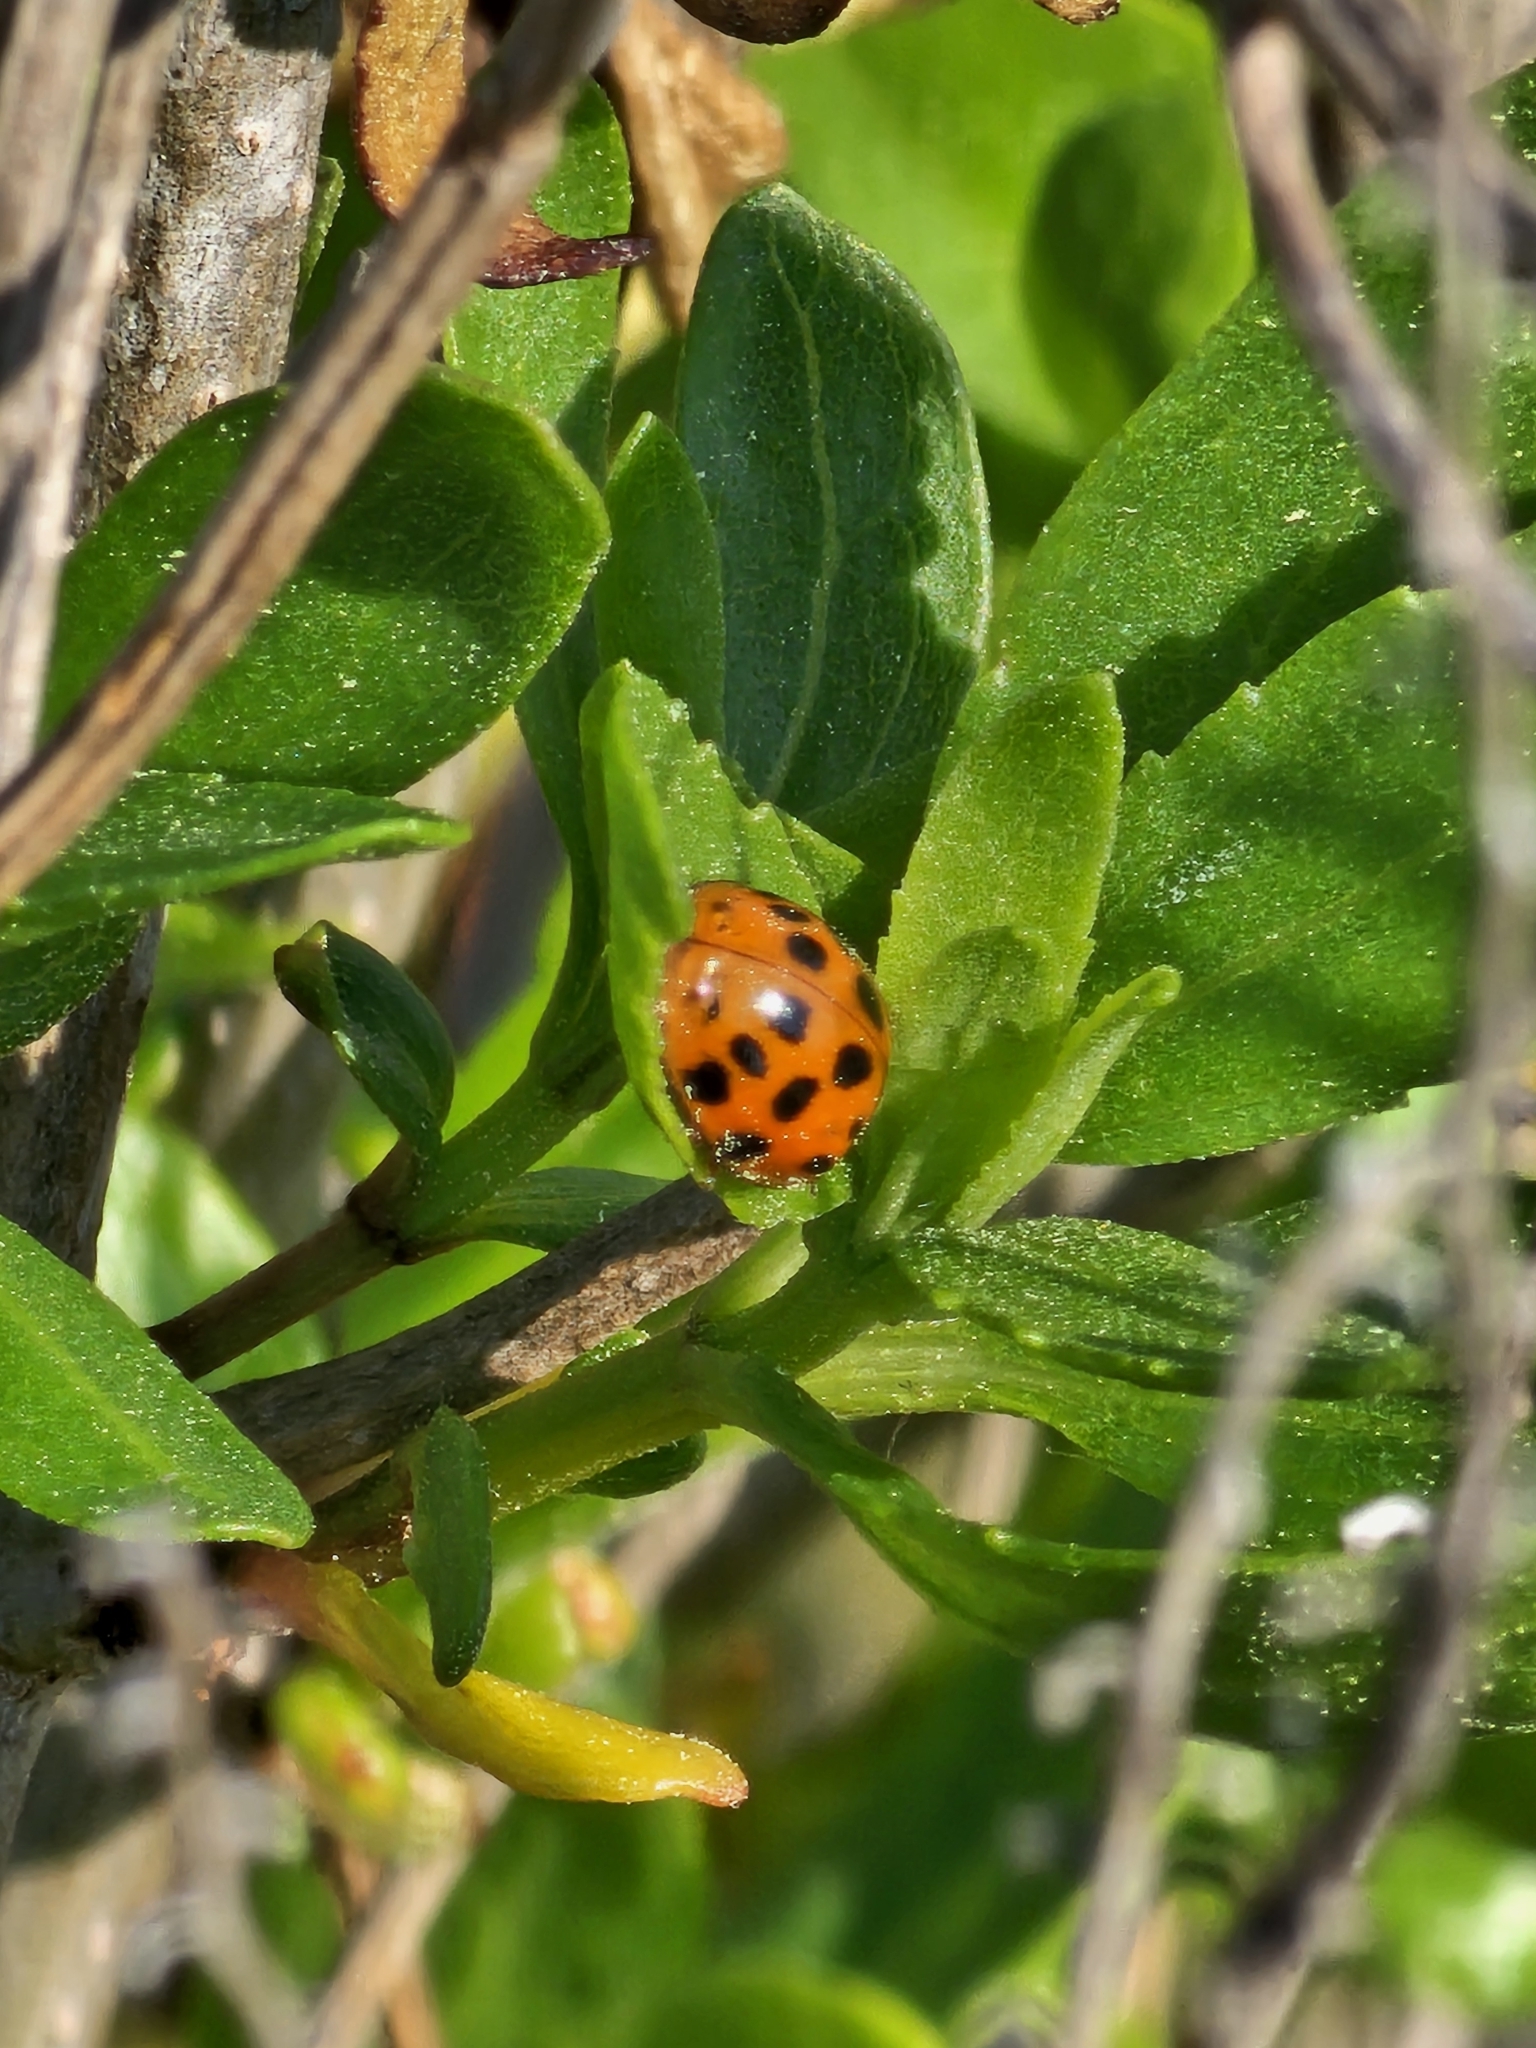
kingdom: Animalia
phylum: Arthropoda
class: Insecta
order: Coleoptera
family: Coccinellidae
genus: Harmonia
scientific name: Harmonia axyridis
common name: Harlequin ladybird
